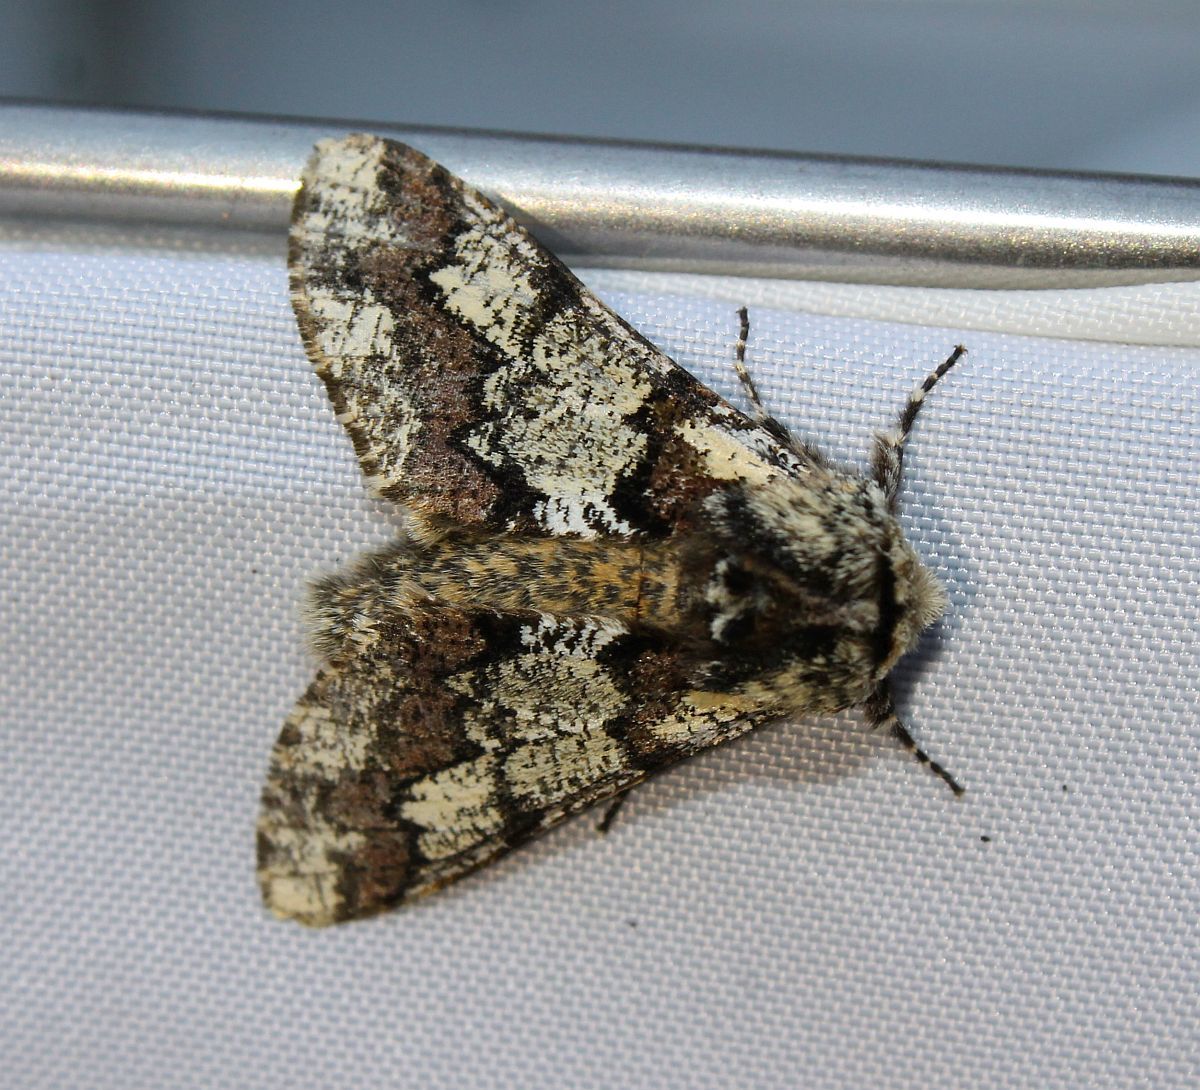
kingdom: Animalia
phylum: Arthropoda
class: Insecta
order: Lepidoptera
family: Geometridae
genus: Biston
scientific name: Biston strataria
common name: Oak beauty
